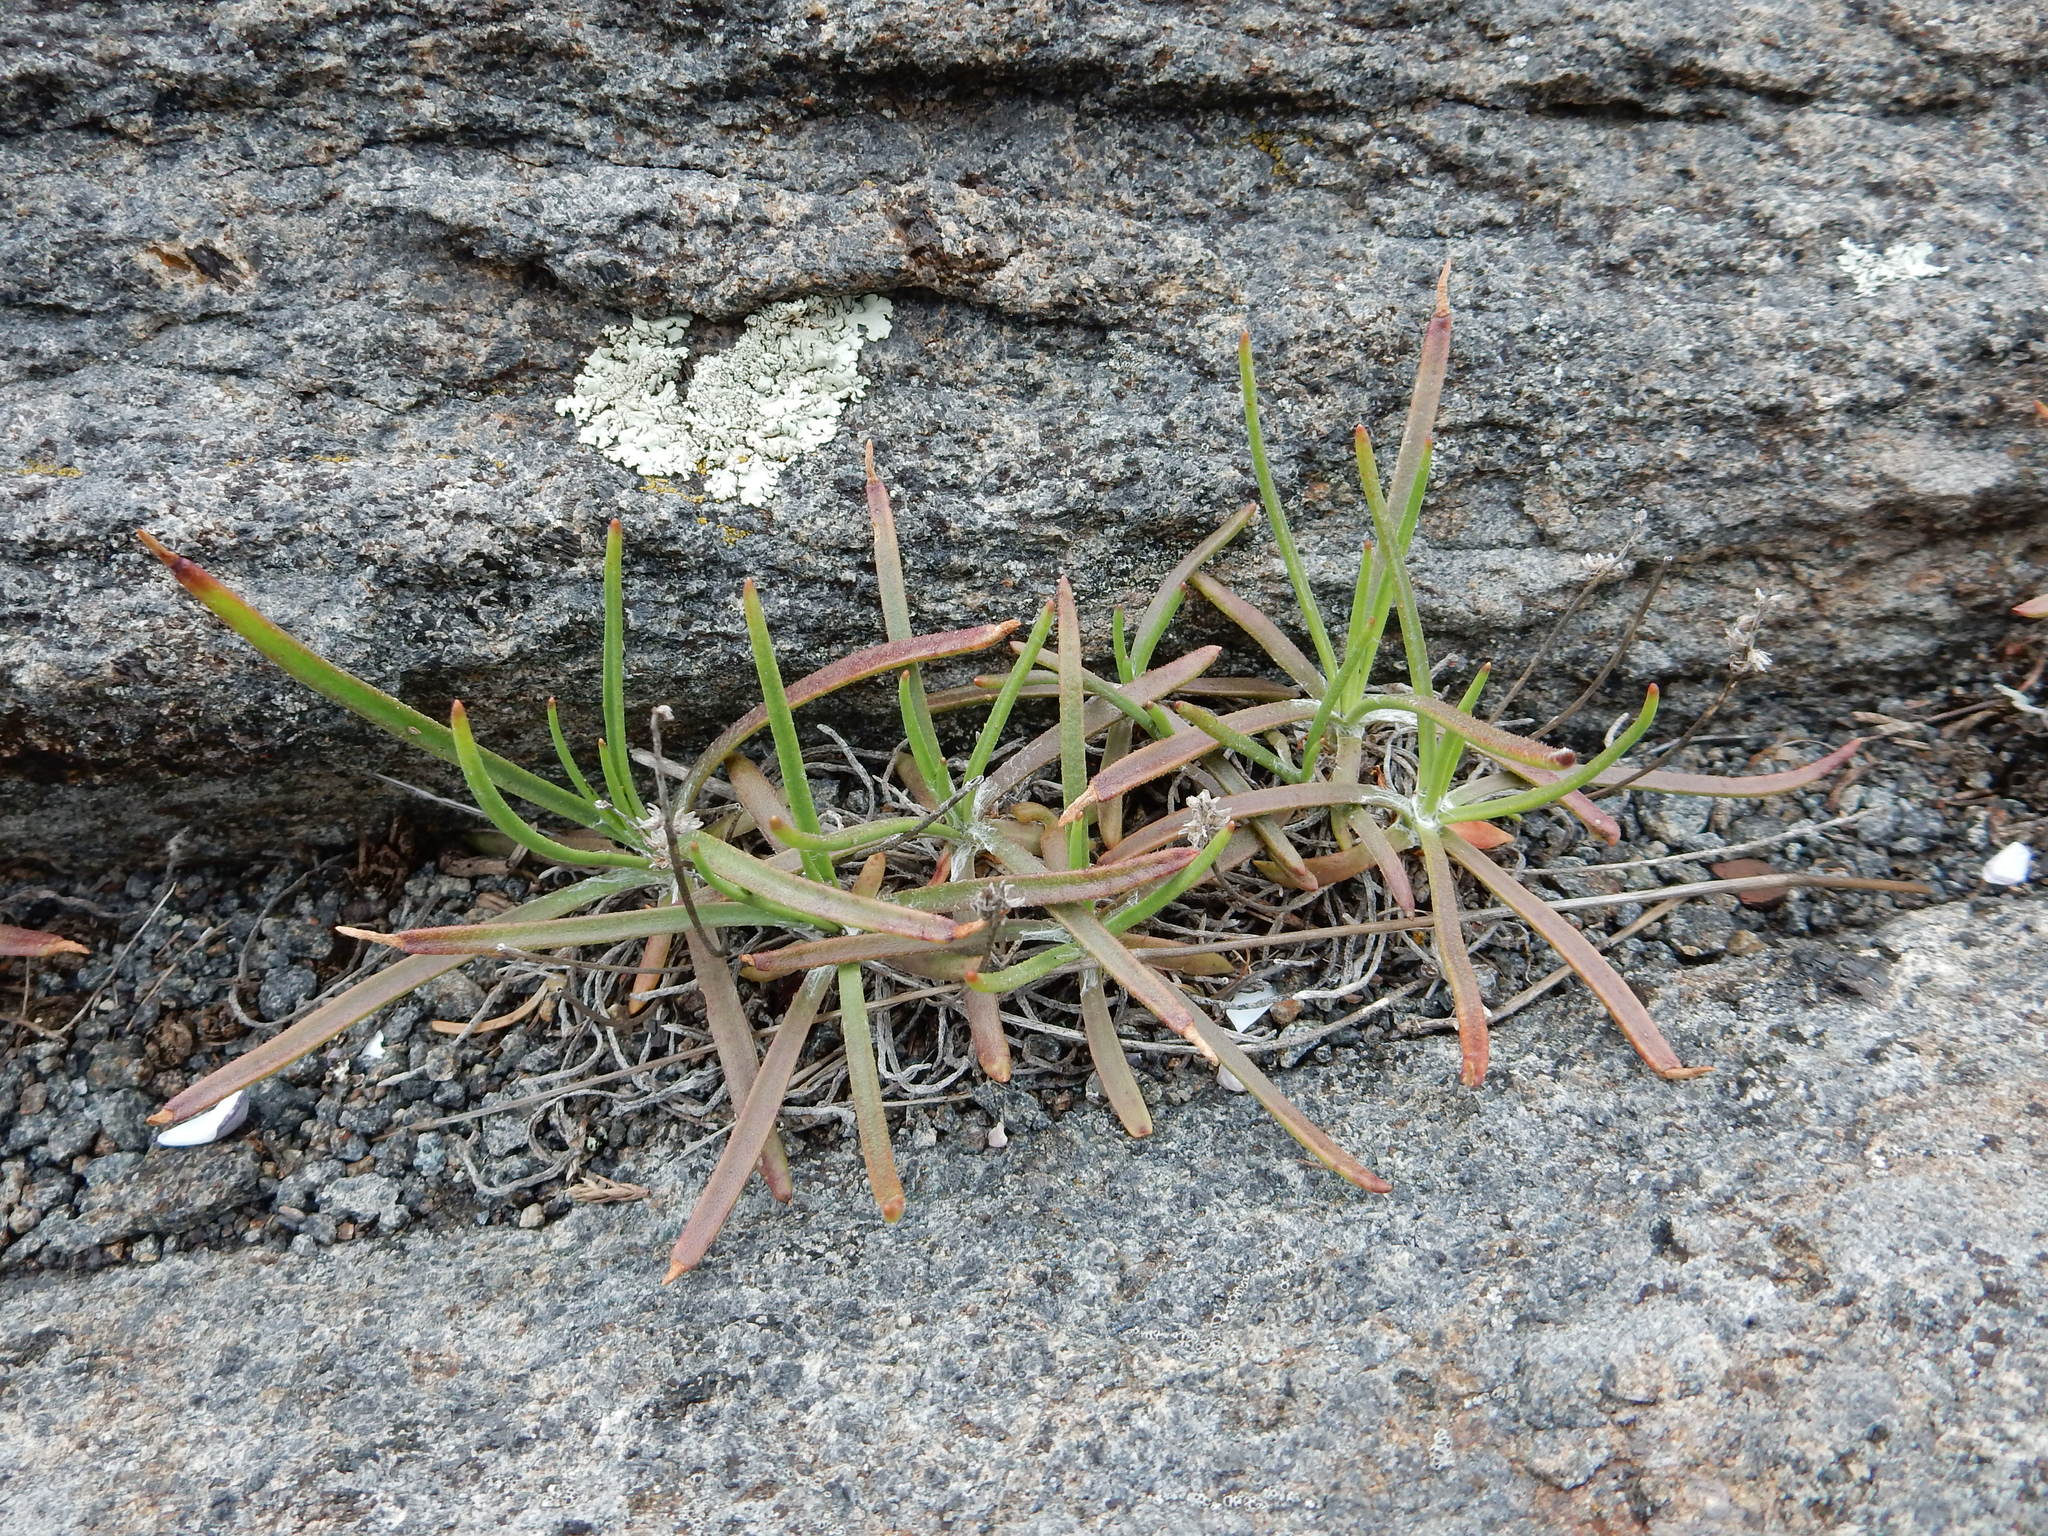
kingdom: Plantae
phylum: Tracheophyta
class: Magnoliopsida
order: Lamiales
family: Plantaginaceae
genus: Plantago
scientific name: Plantago maritima
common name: Sea plantain
